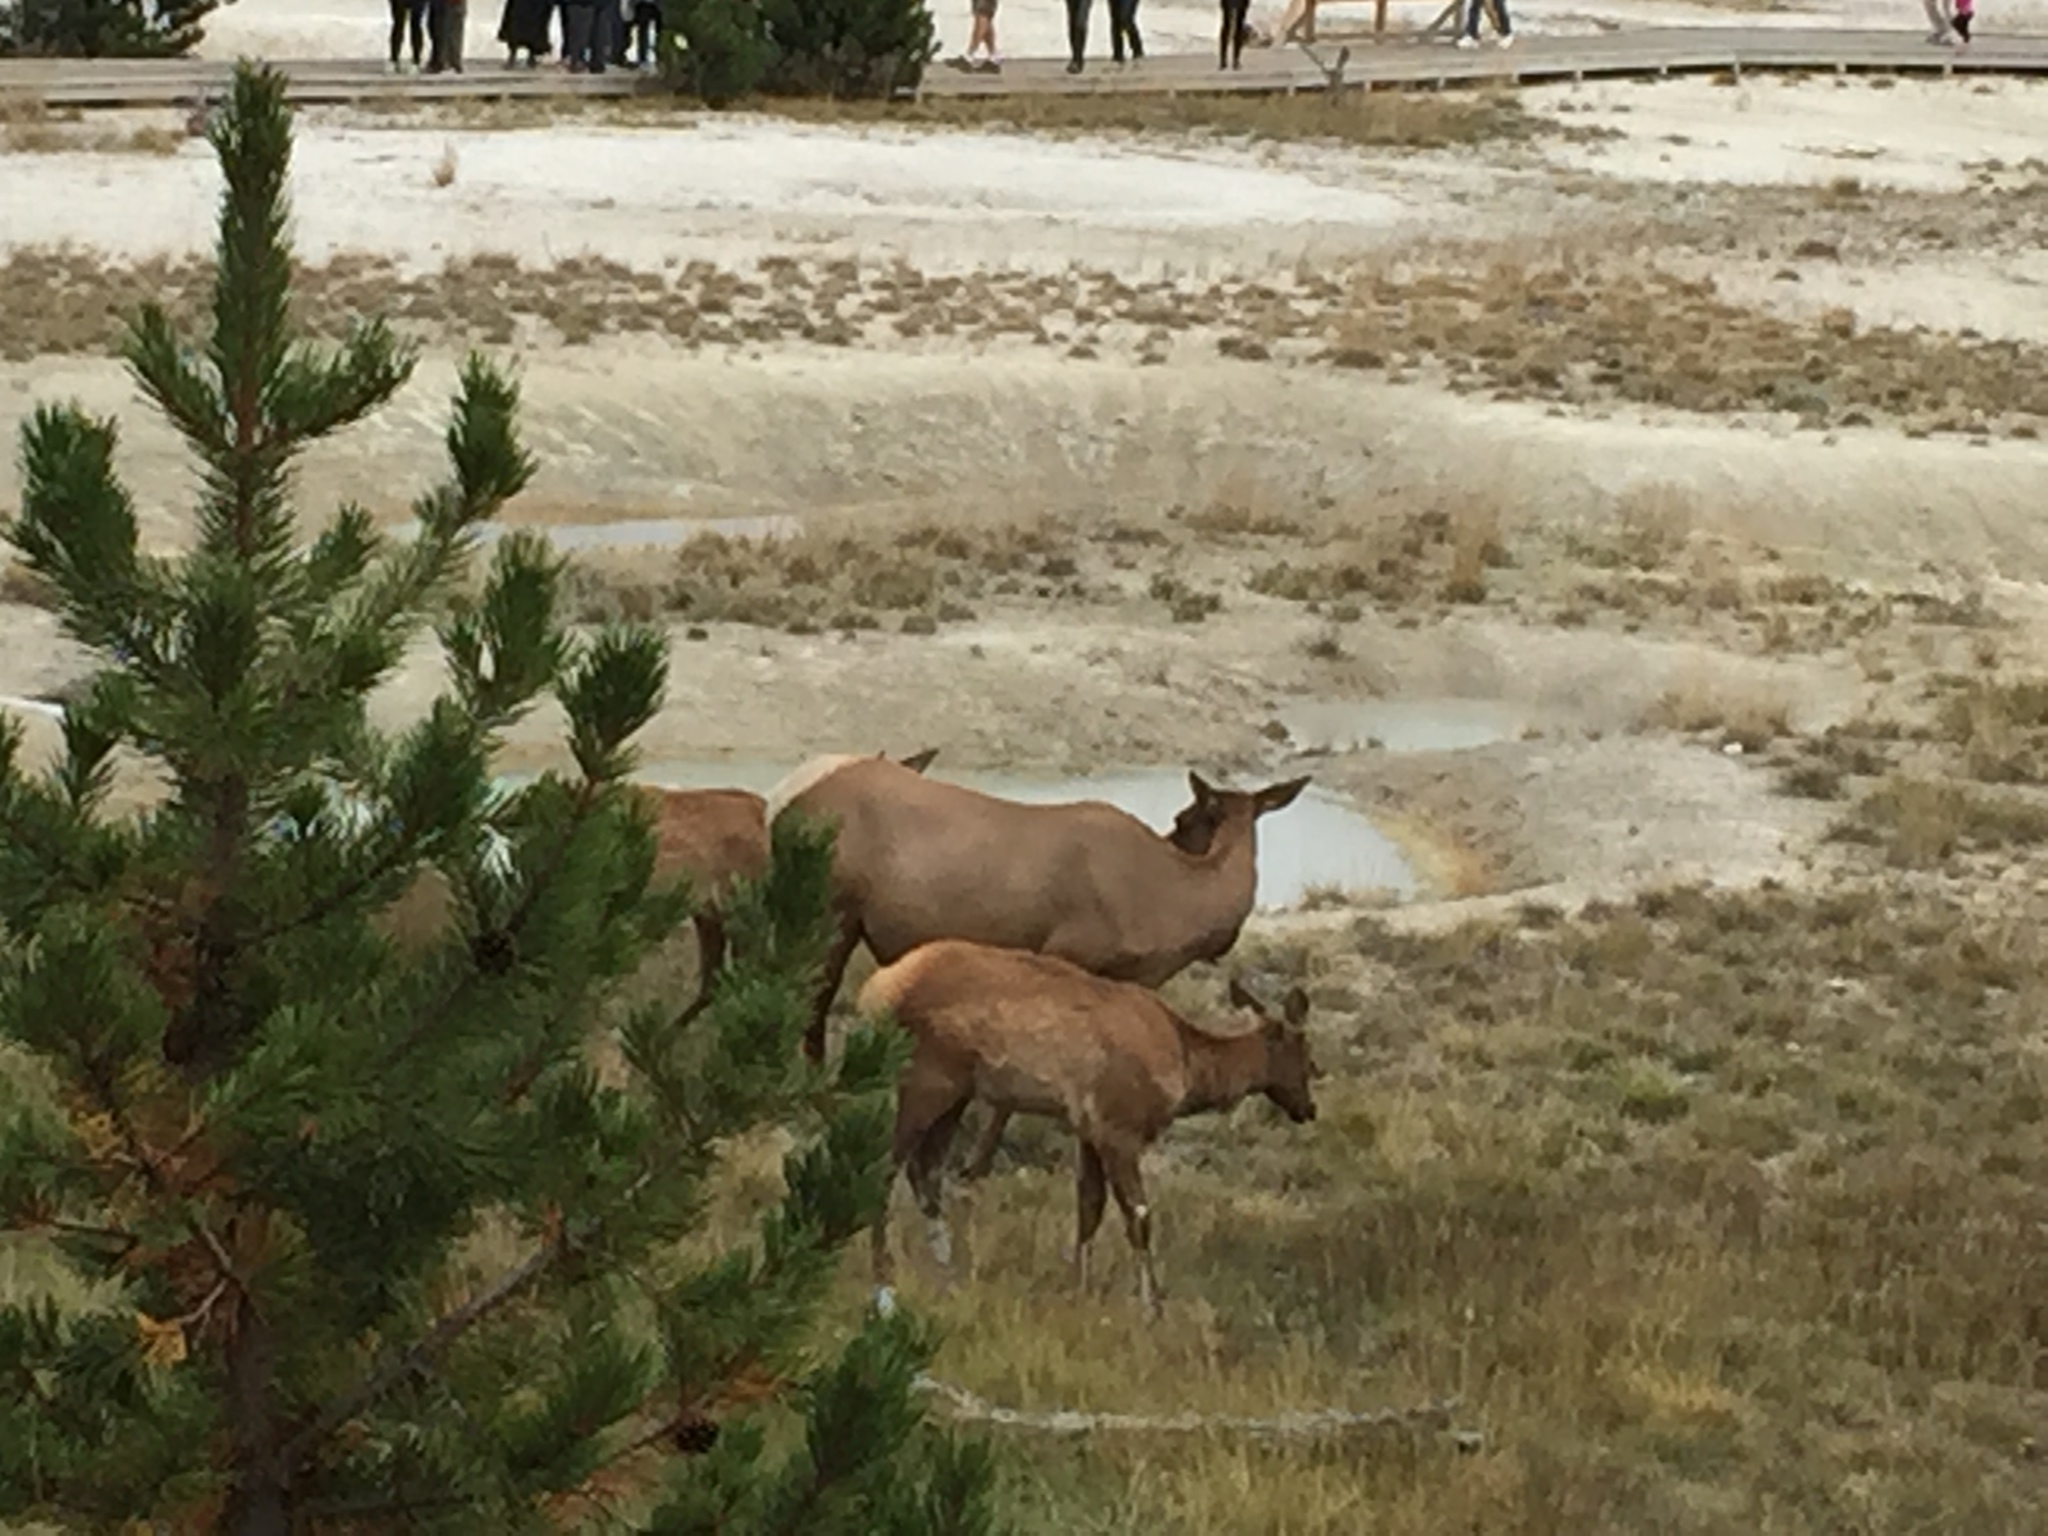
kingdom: Animalia
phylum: Chordata
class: Mammalia
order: Artiodactyla
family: Cervidae
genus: Cervus
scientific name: Cervus elaphus
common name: Red deer
